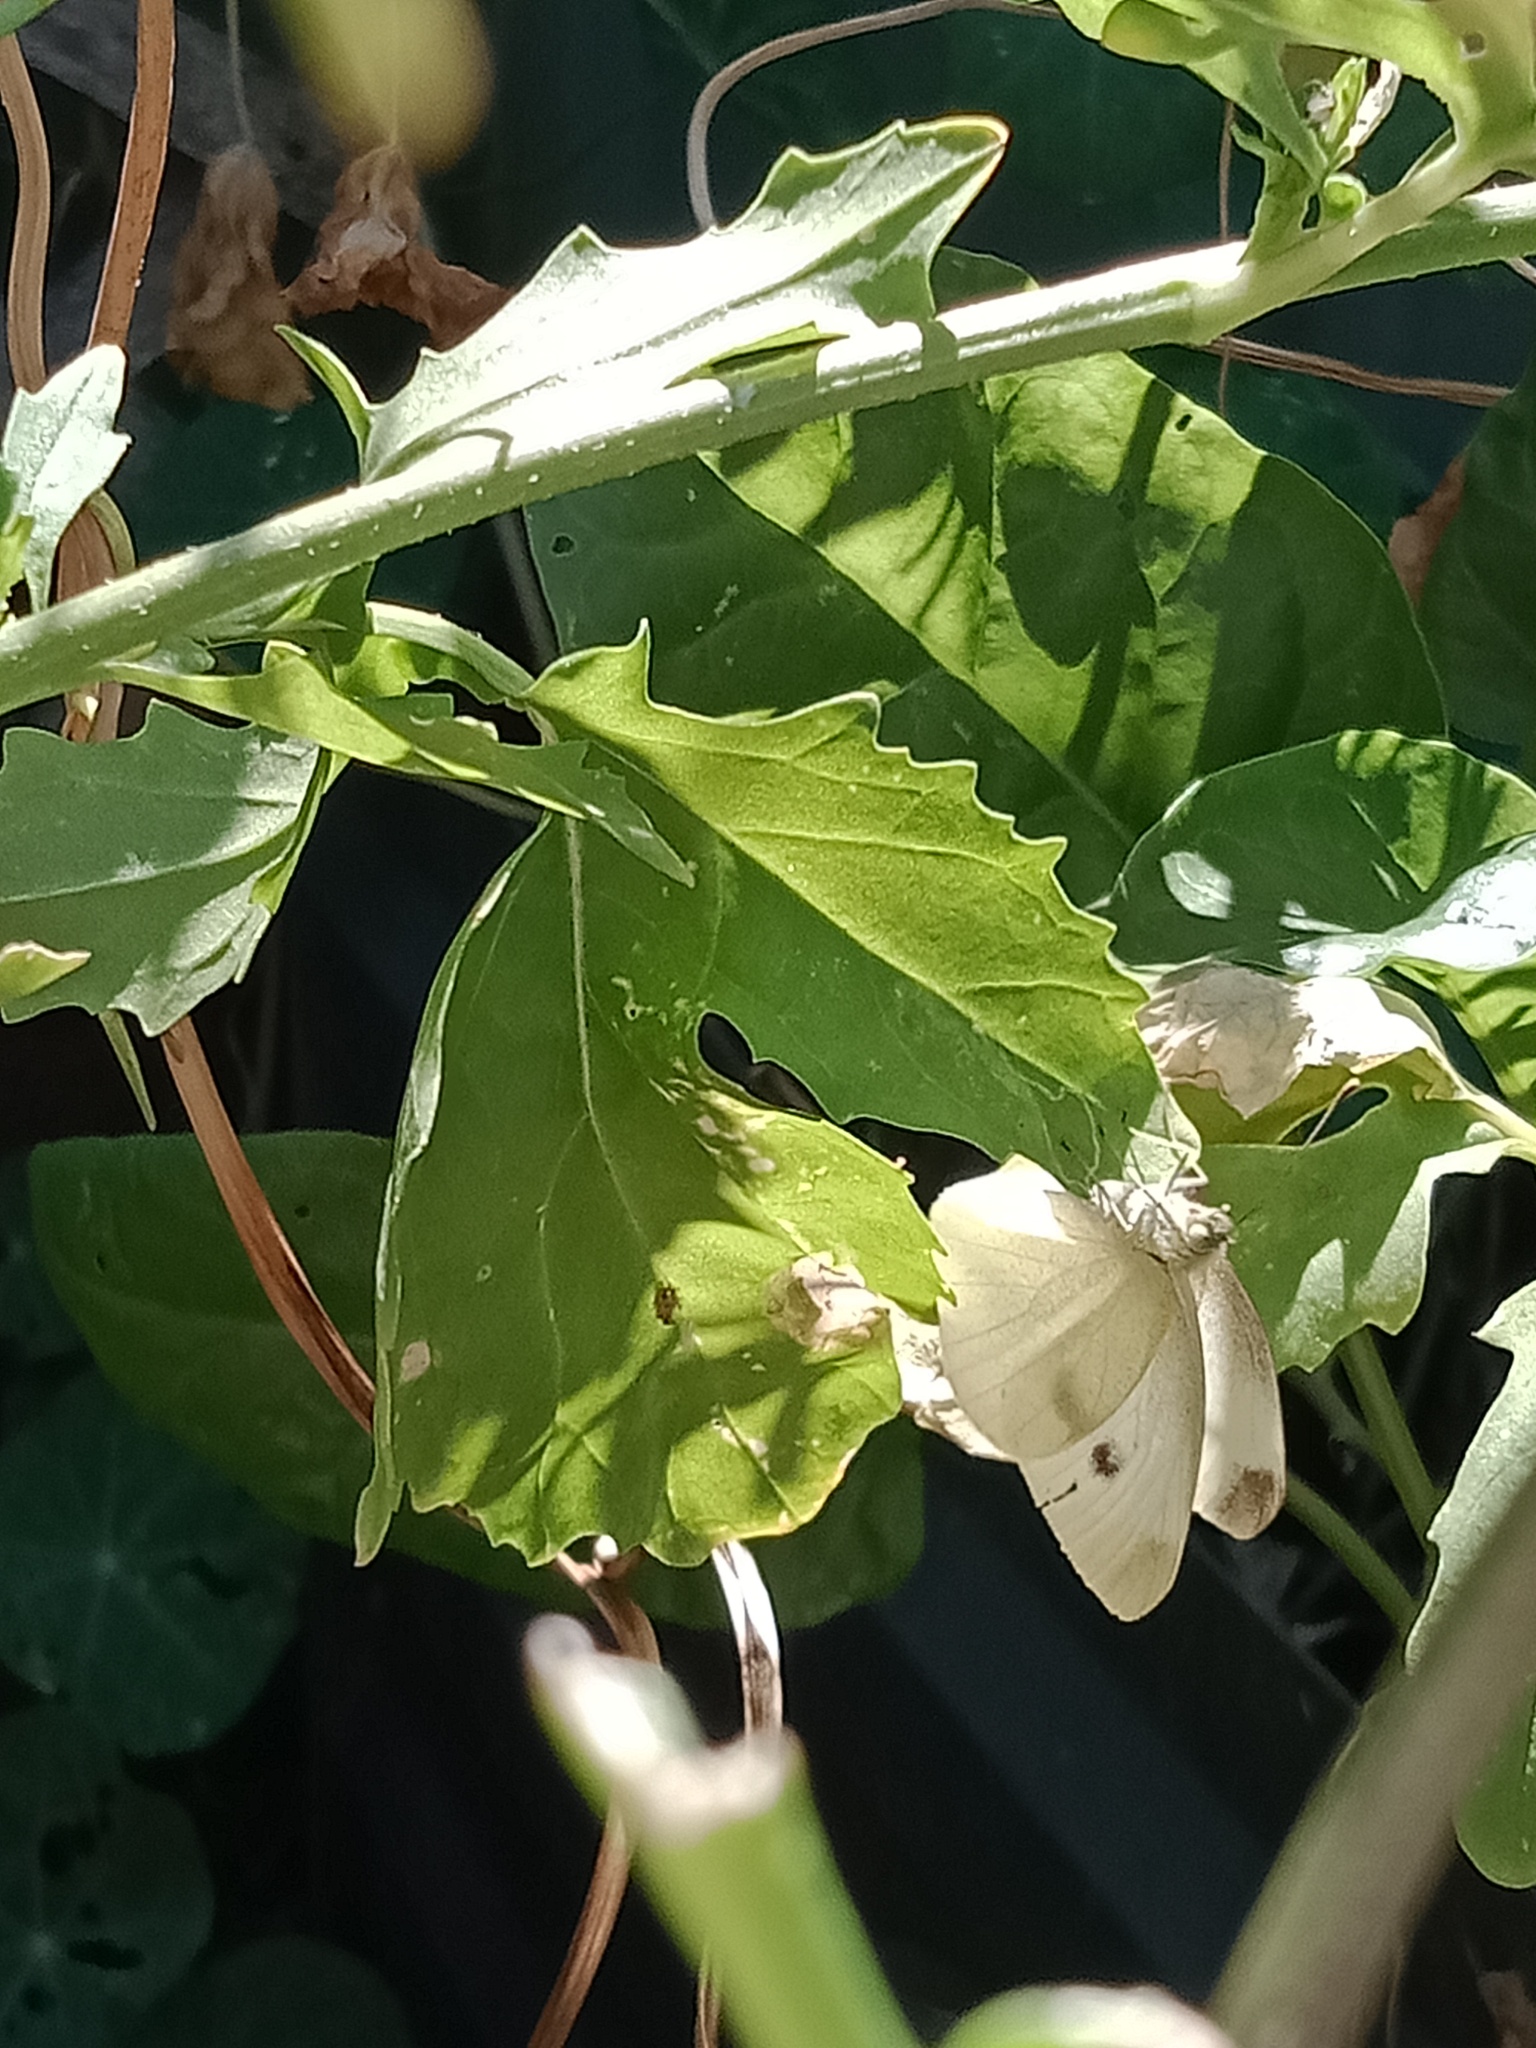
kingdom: Animalia
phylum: Arthropoda
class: Insecta
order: Lepidoptera
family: Pieridae
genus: Pieris
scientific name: Pieris rapae
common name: Small white
